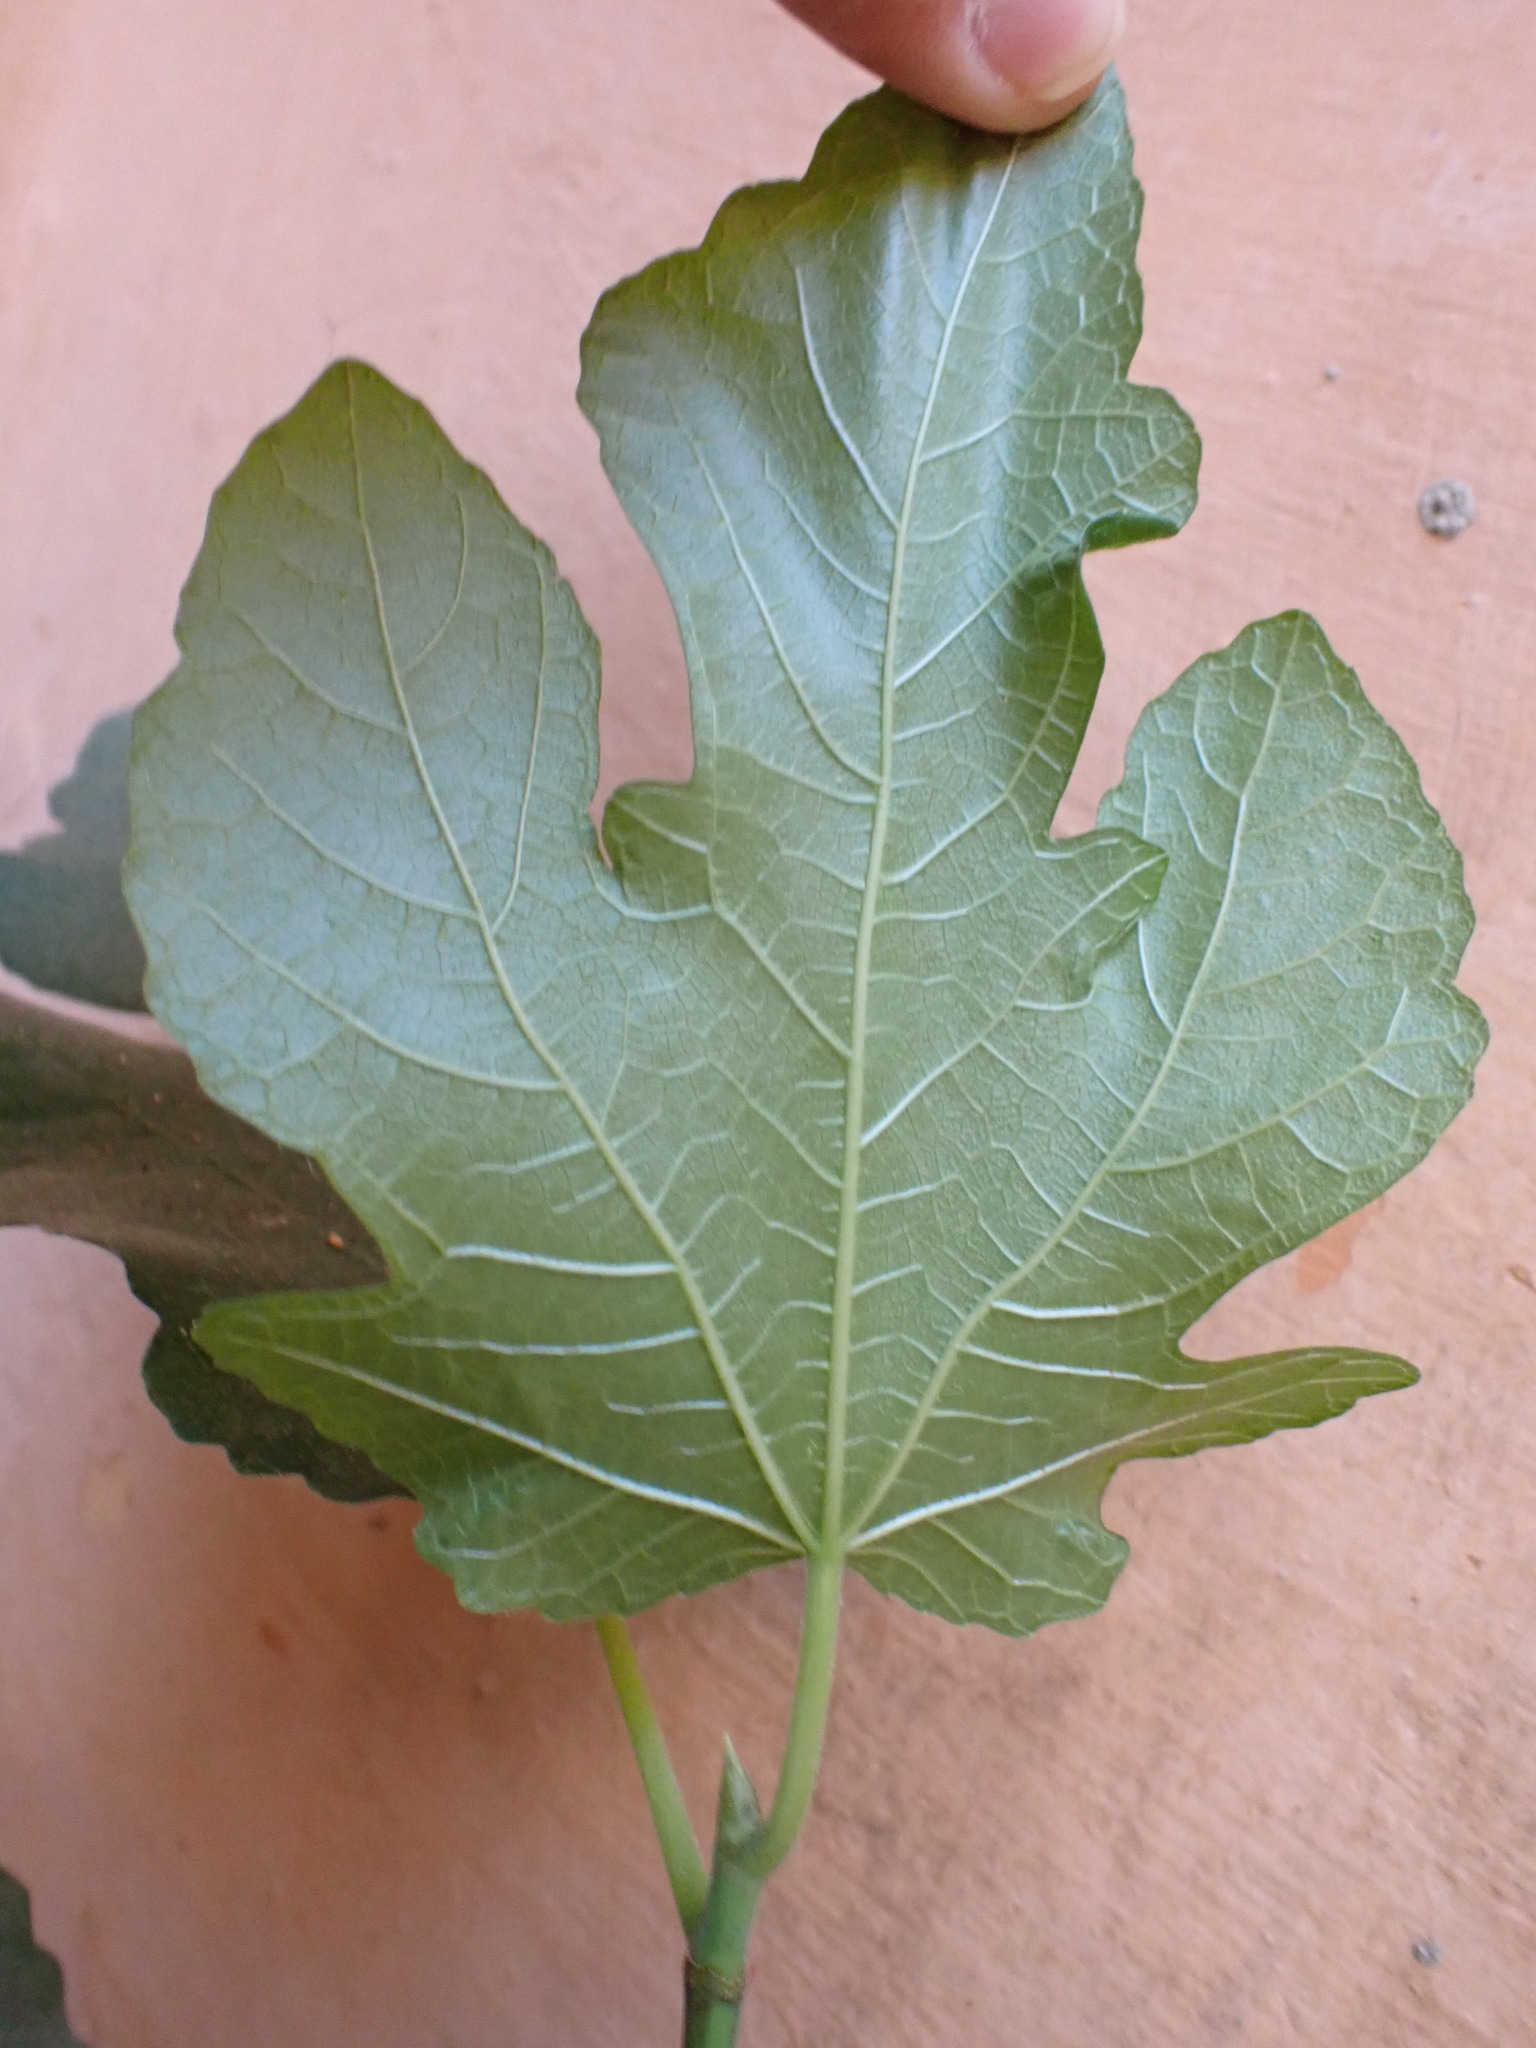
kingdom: Plantae
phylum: Tracheophyta
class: Magnoliopsida
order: Rosales
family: Moraceae
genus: Ficus
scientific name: Ficus carica
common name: Fig
